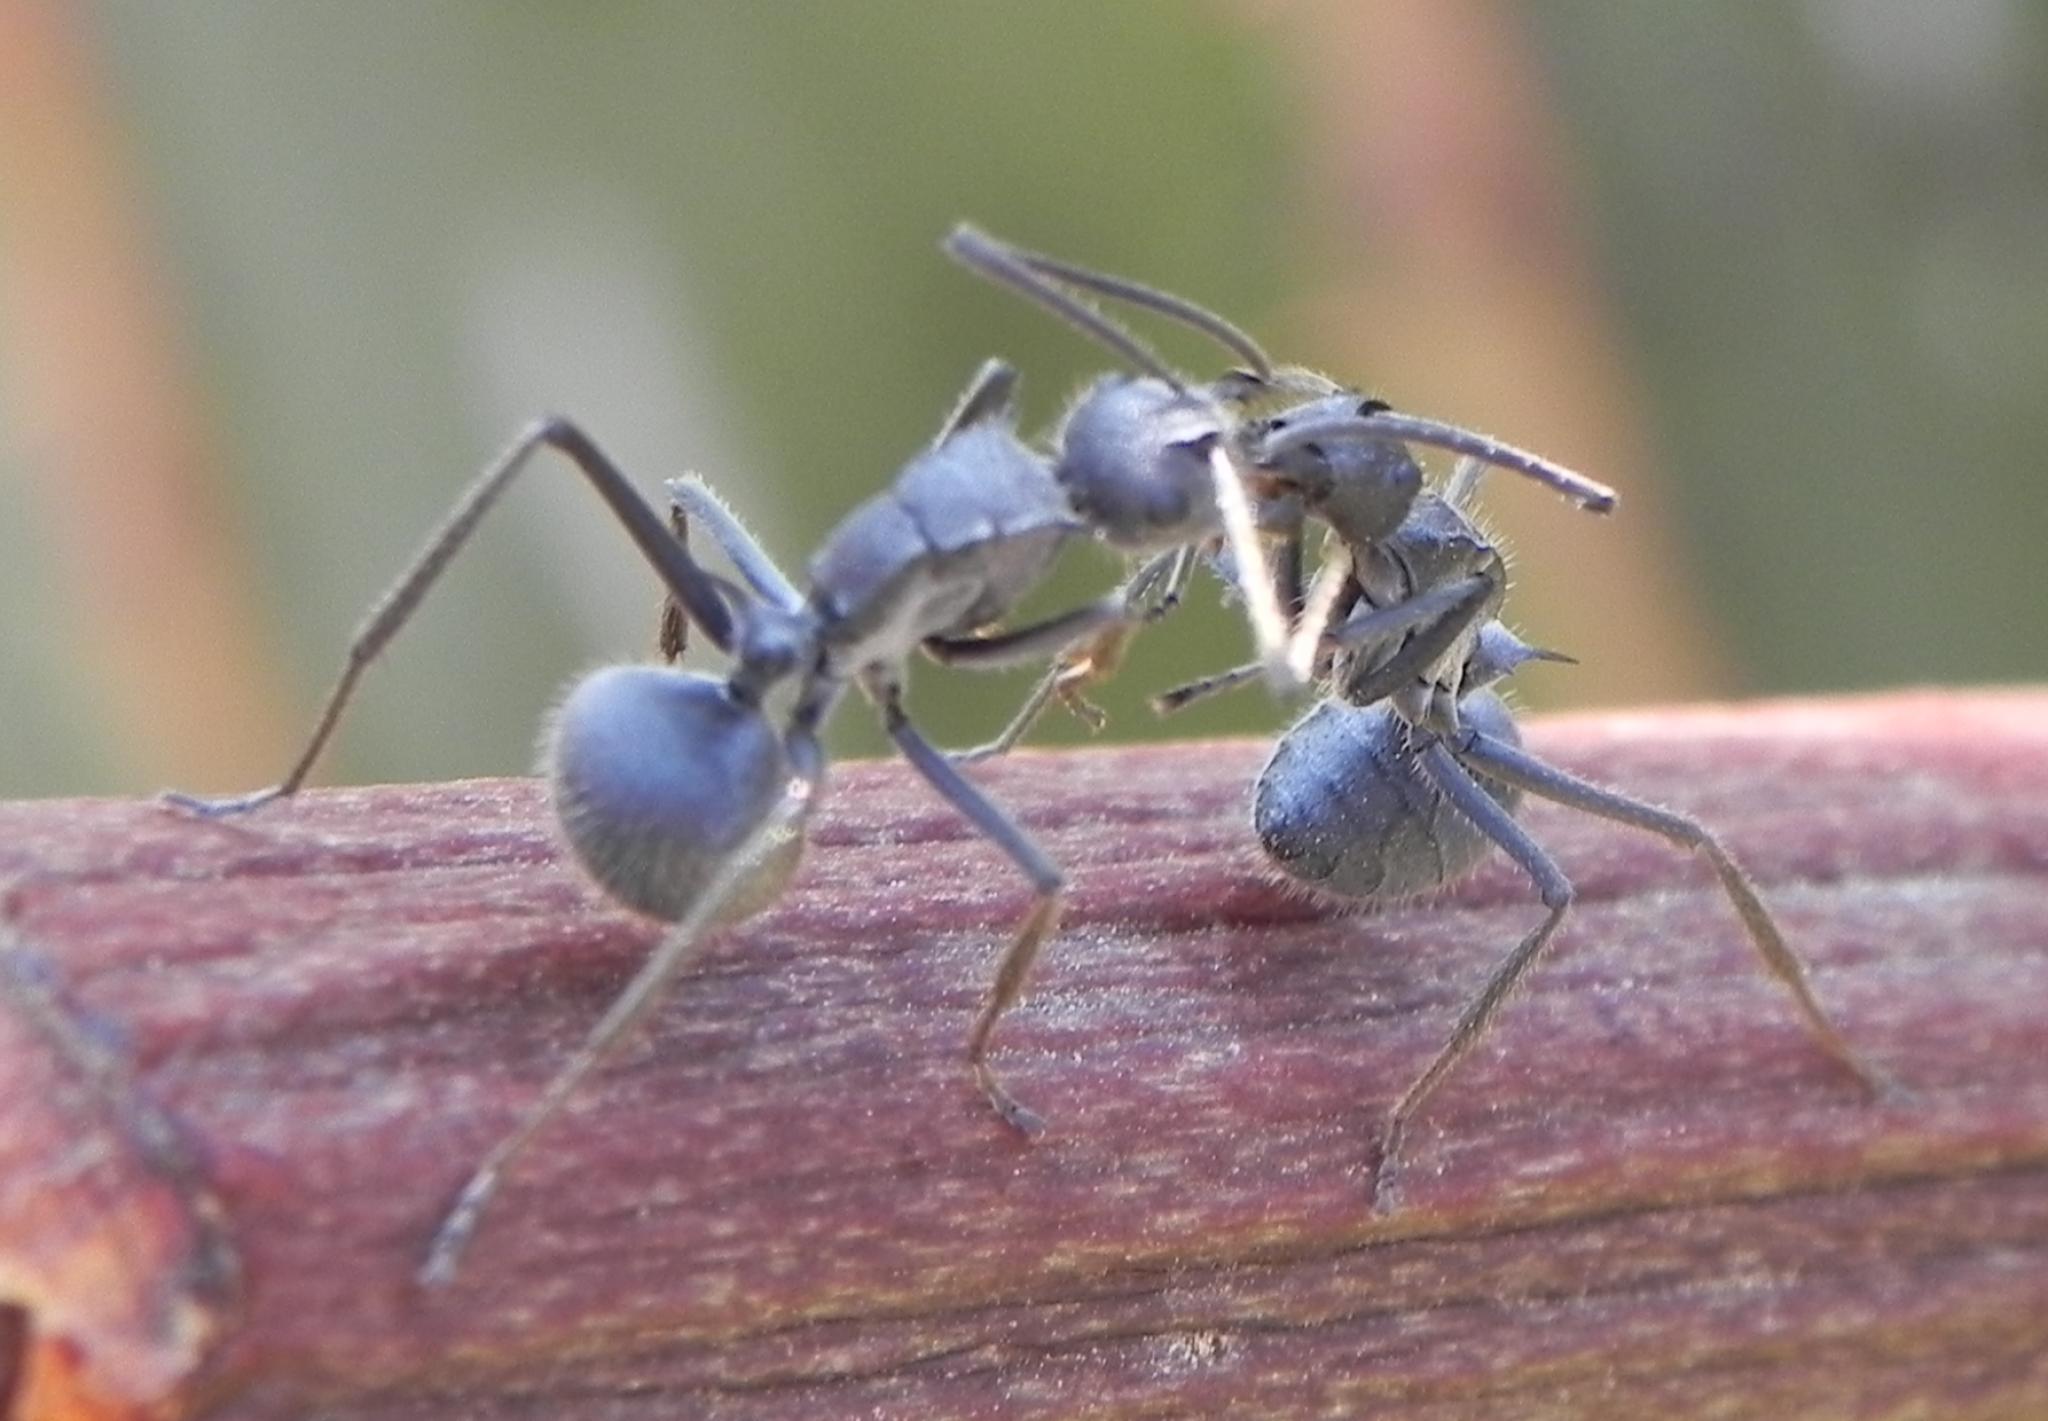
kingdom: Animalia
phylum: Arthropoda
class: Insecta
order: Hymenoptera
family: Formicidae
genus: Polyrhachis
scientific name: Polyrhachis schistacea
